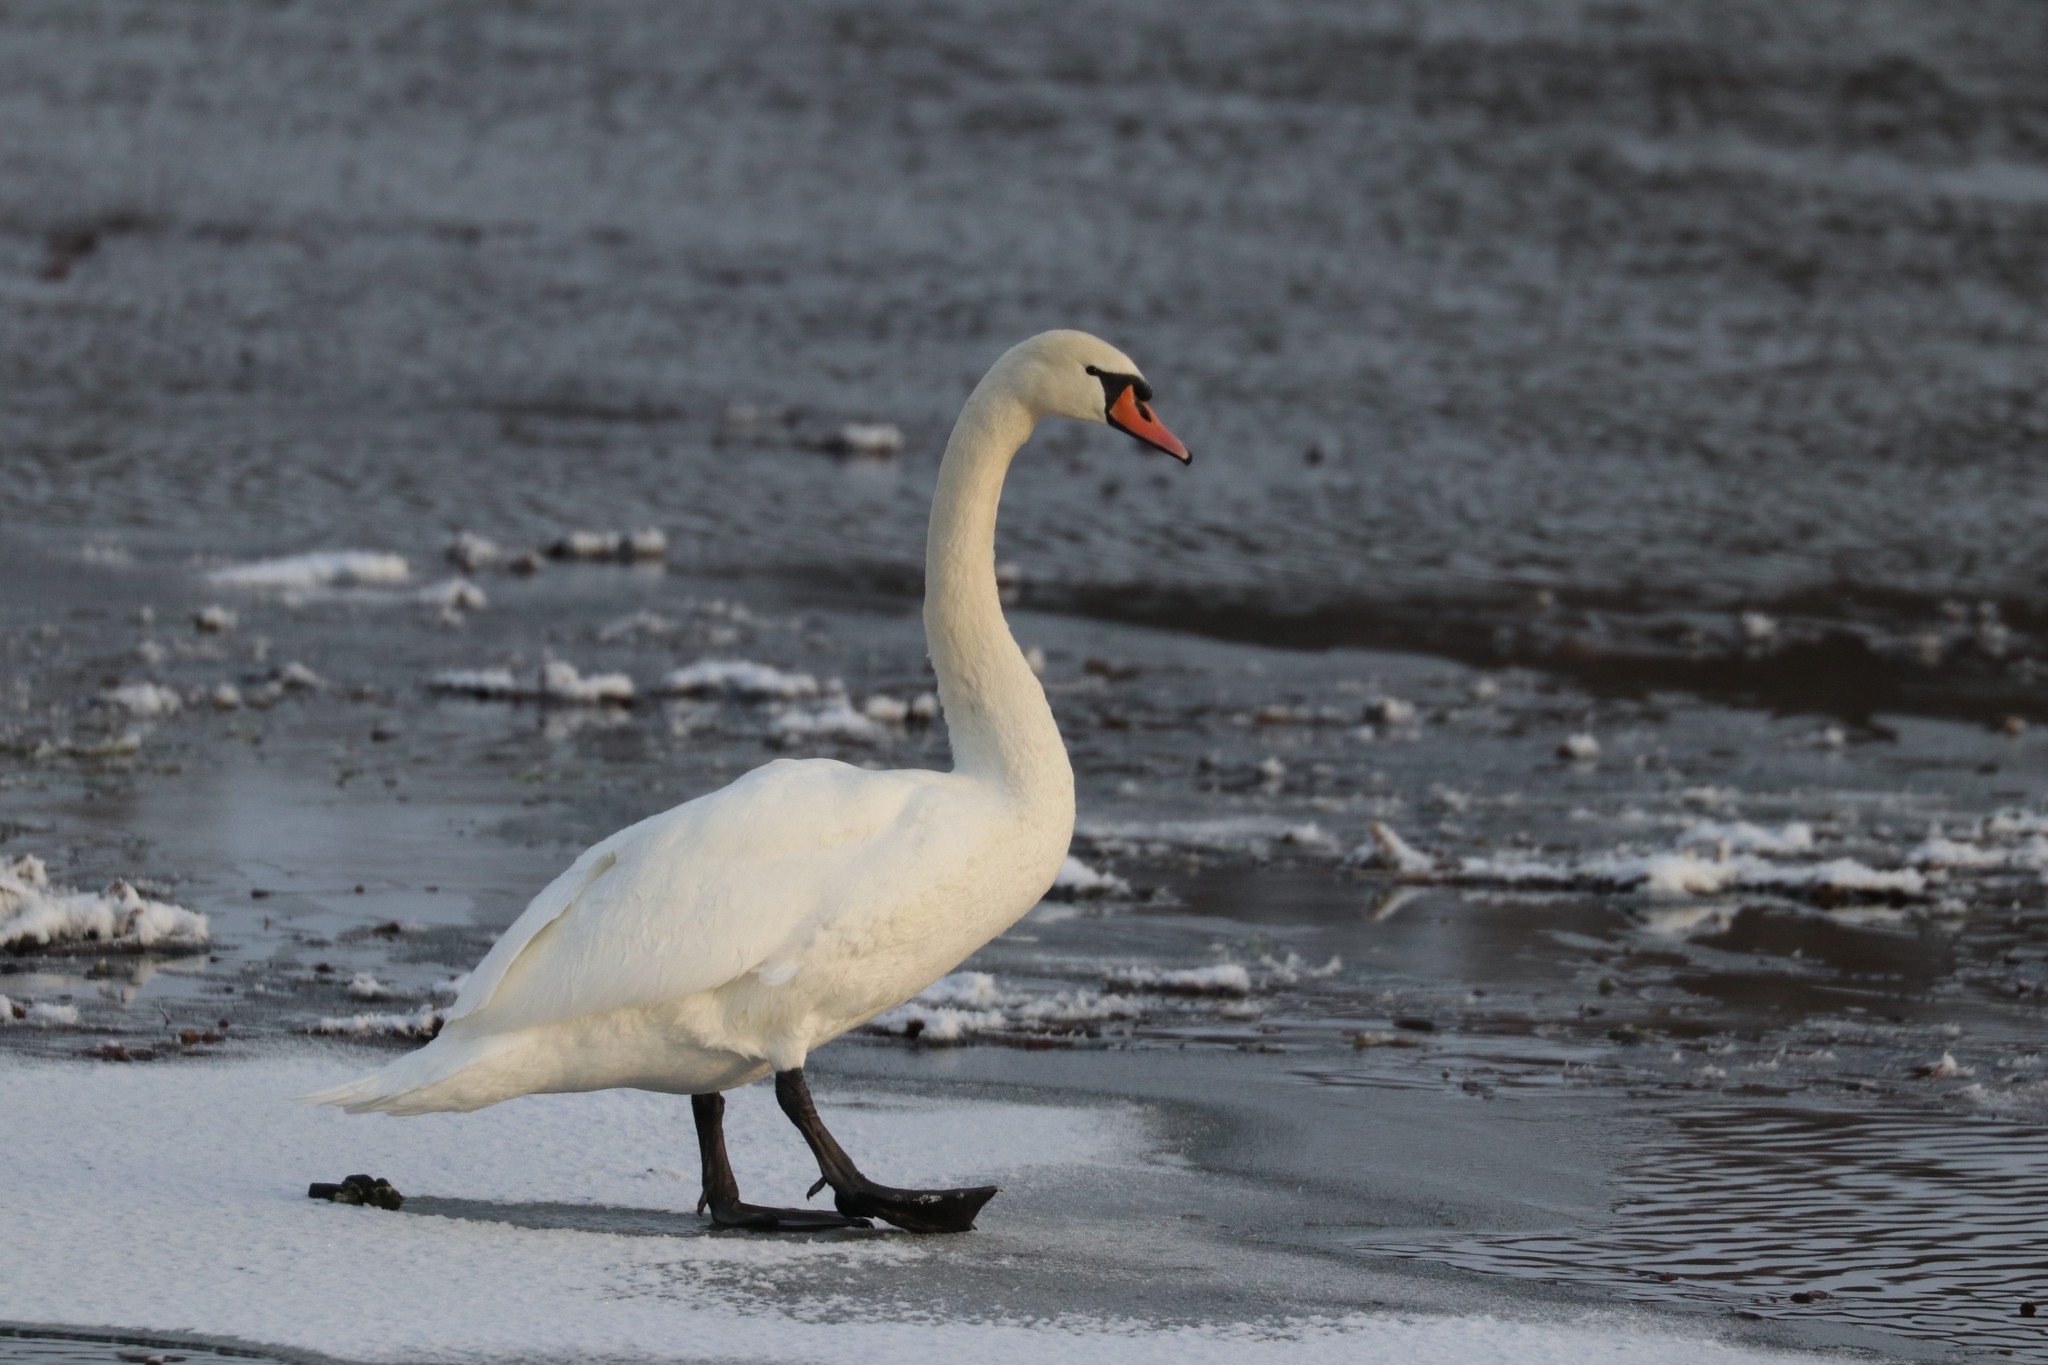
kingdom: Animalia
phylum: Chordata
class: Aves
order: Anseriformes
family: Anatidae
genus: Cygnus
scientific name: Cygnus olor
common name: Mute swan
